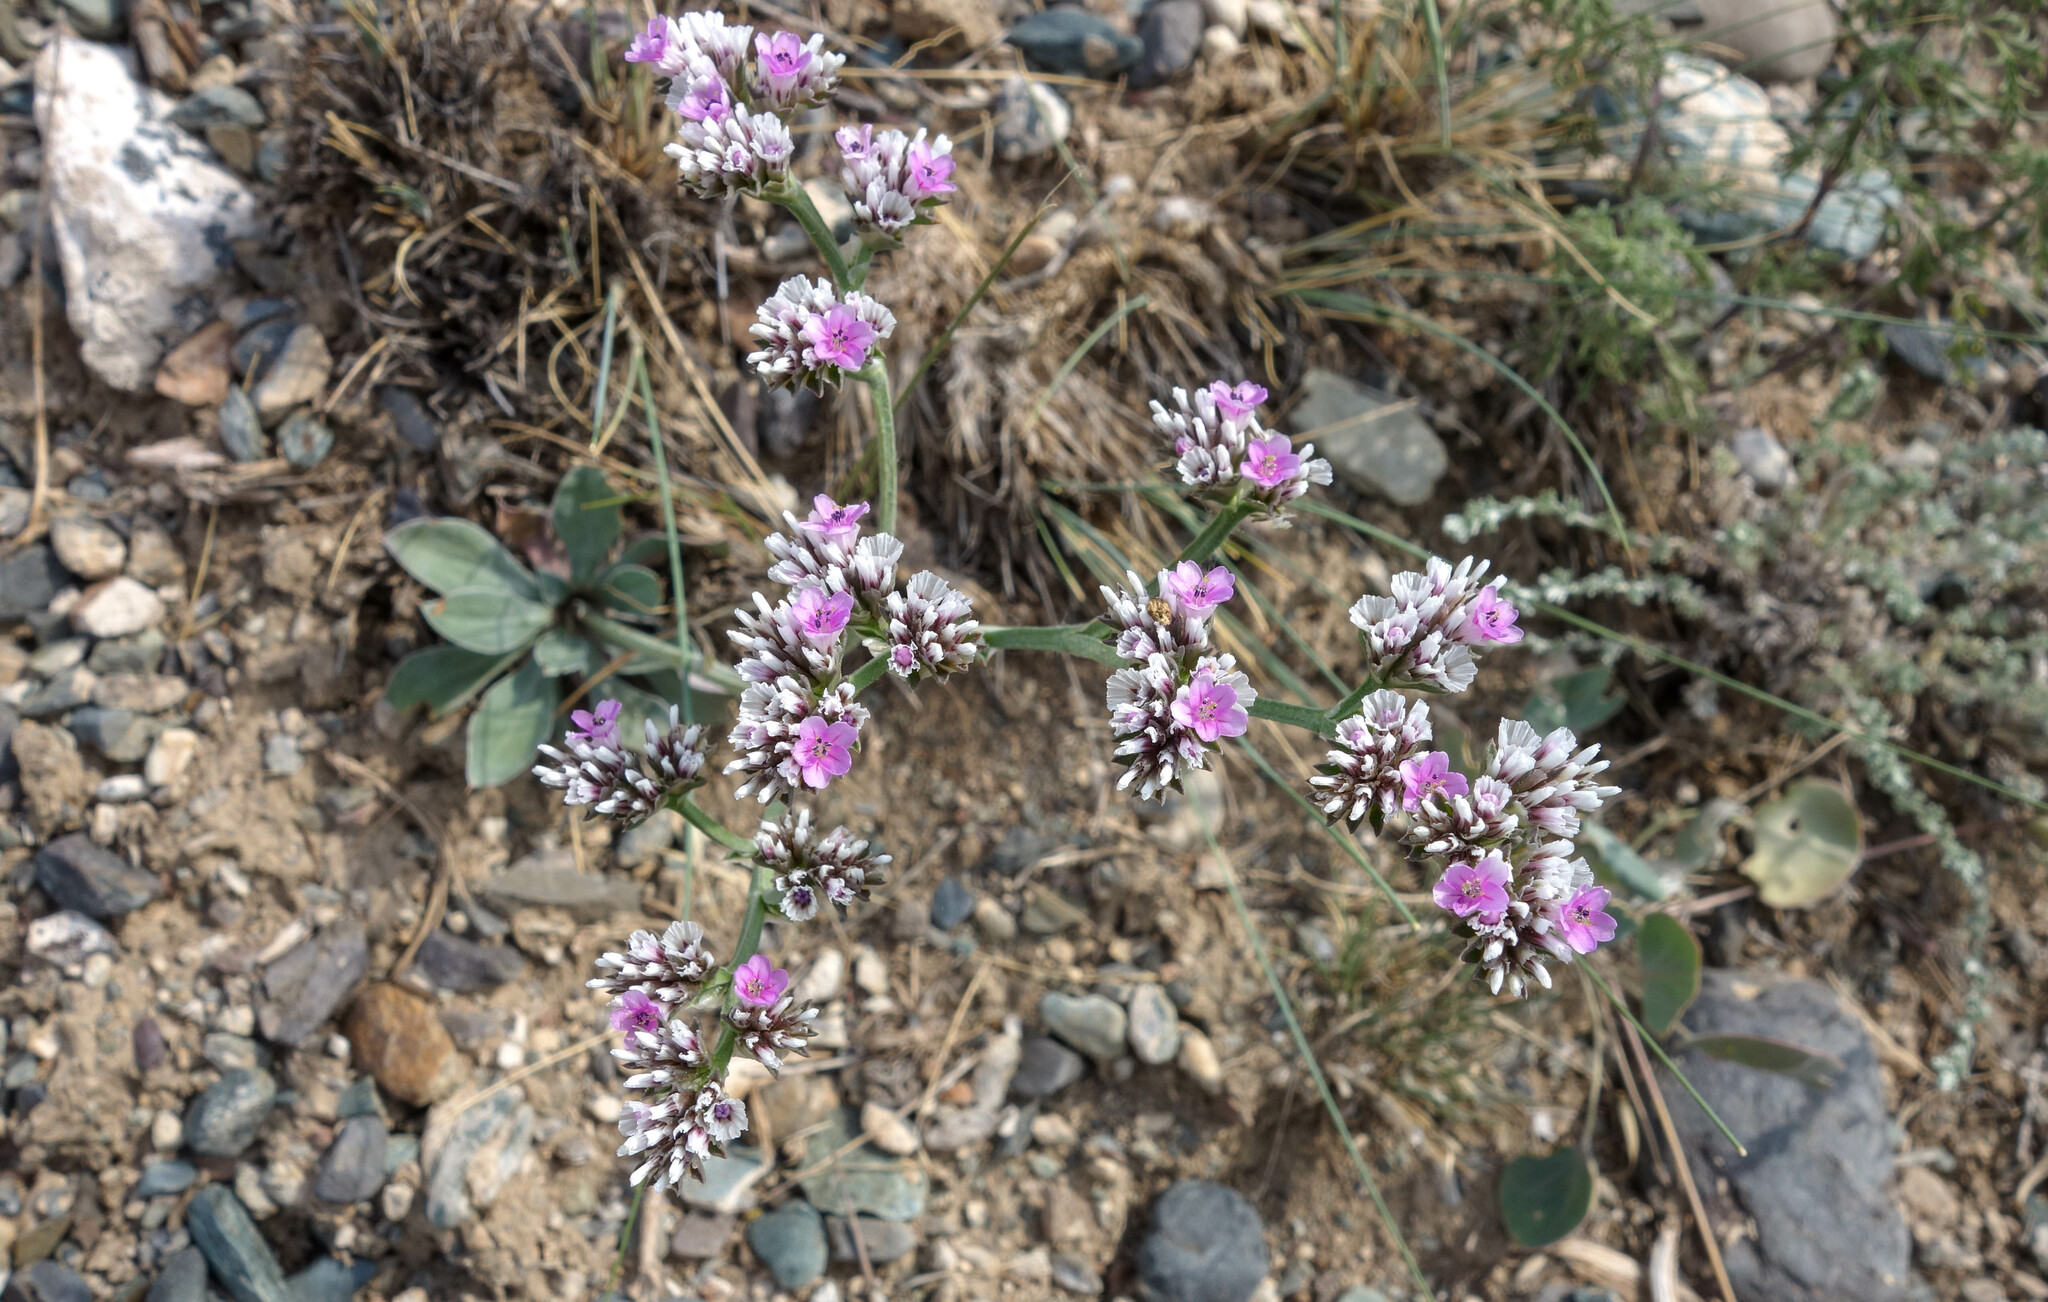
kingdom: Plantae
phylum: Tracheophyta
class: Magnoliopsida
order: Caryophyllales
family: Plumbaginaceae
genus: Goniolimon
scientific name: Goniolimon speciosum
